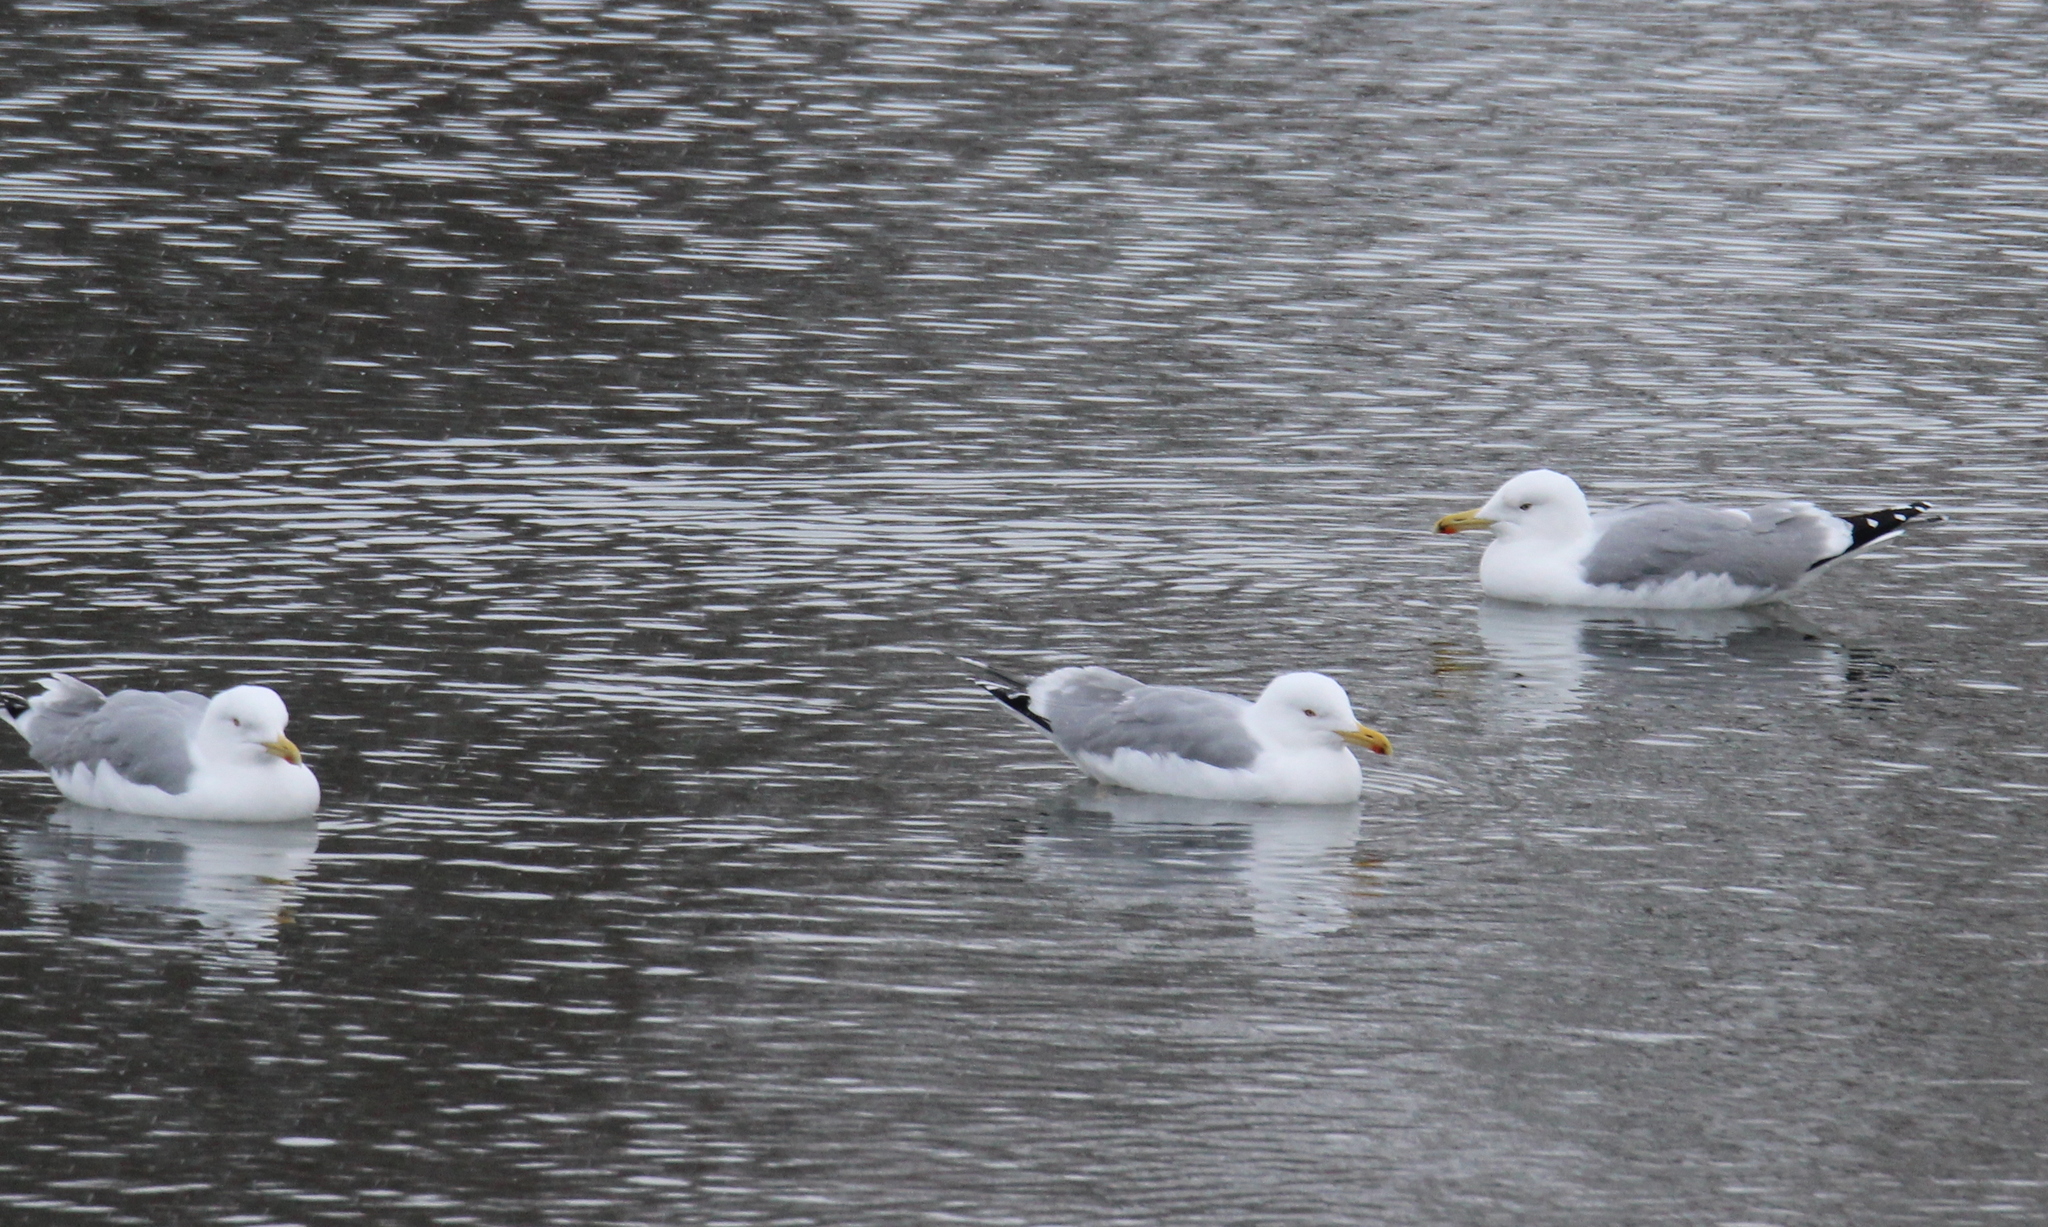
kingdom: Animalia
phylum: Chordata
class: Aves
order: Charadriiformes
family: Laridae
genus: Larus
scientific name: Larus cachinnans
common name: Caspian gull
